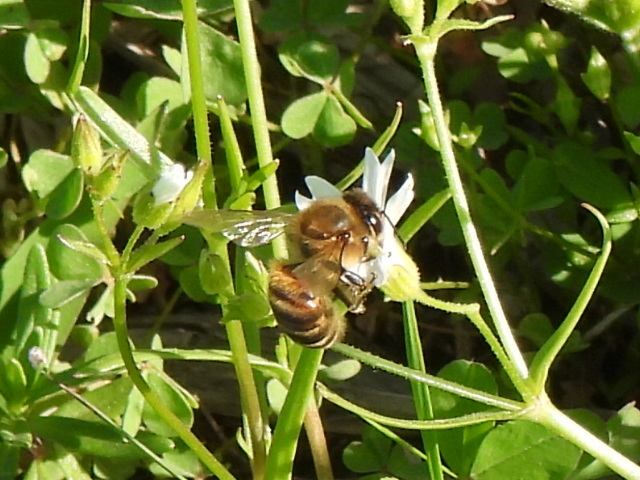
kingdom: Animalia
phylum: Arthropoda
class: Insecta
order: Hymenoptera
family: Apidae
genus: Apis
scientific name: Apis mellifera
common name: Honey bee
